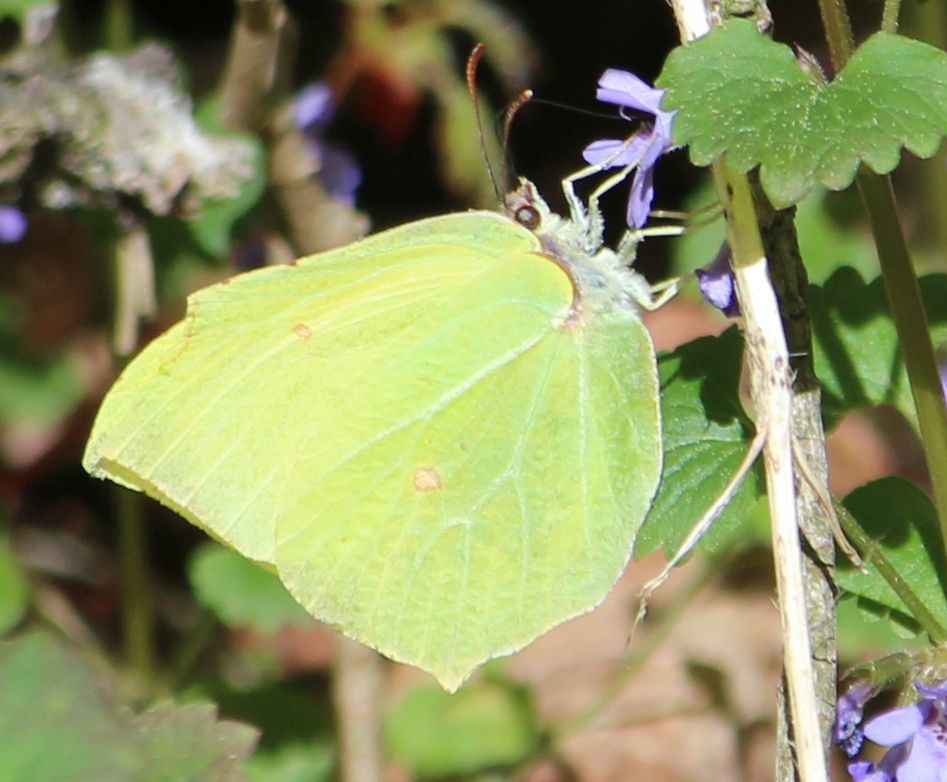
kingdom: Animalia
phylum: Arthropoda
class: Insecta
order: Lepidoptera
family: Pieridae
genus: Gonepteryx
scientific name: Gonepteryx rhamni
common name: Brimstone
